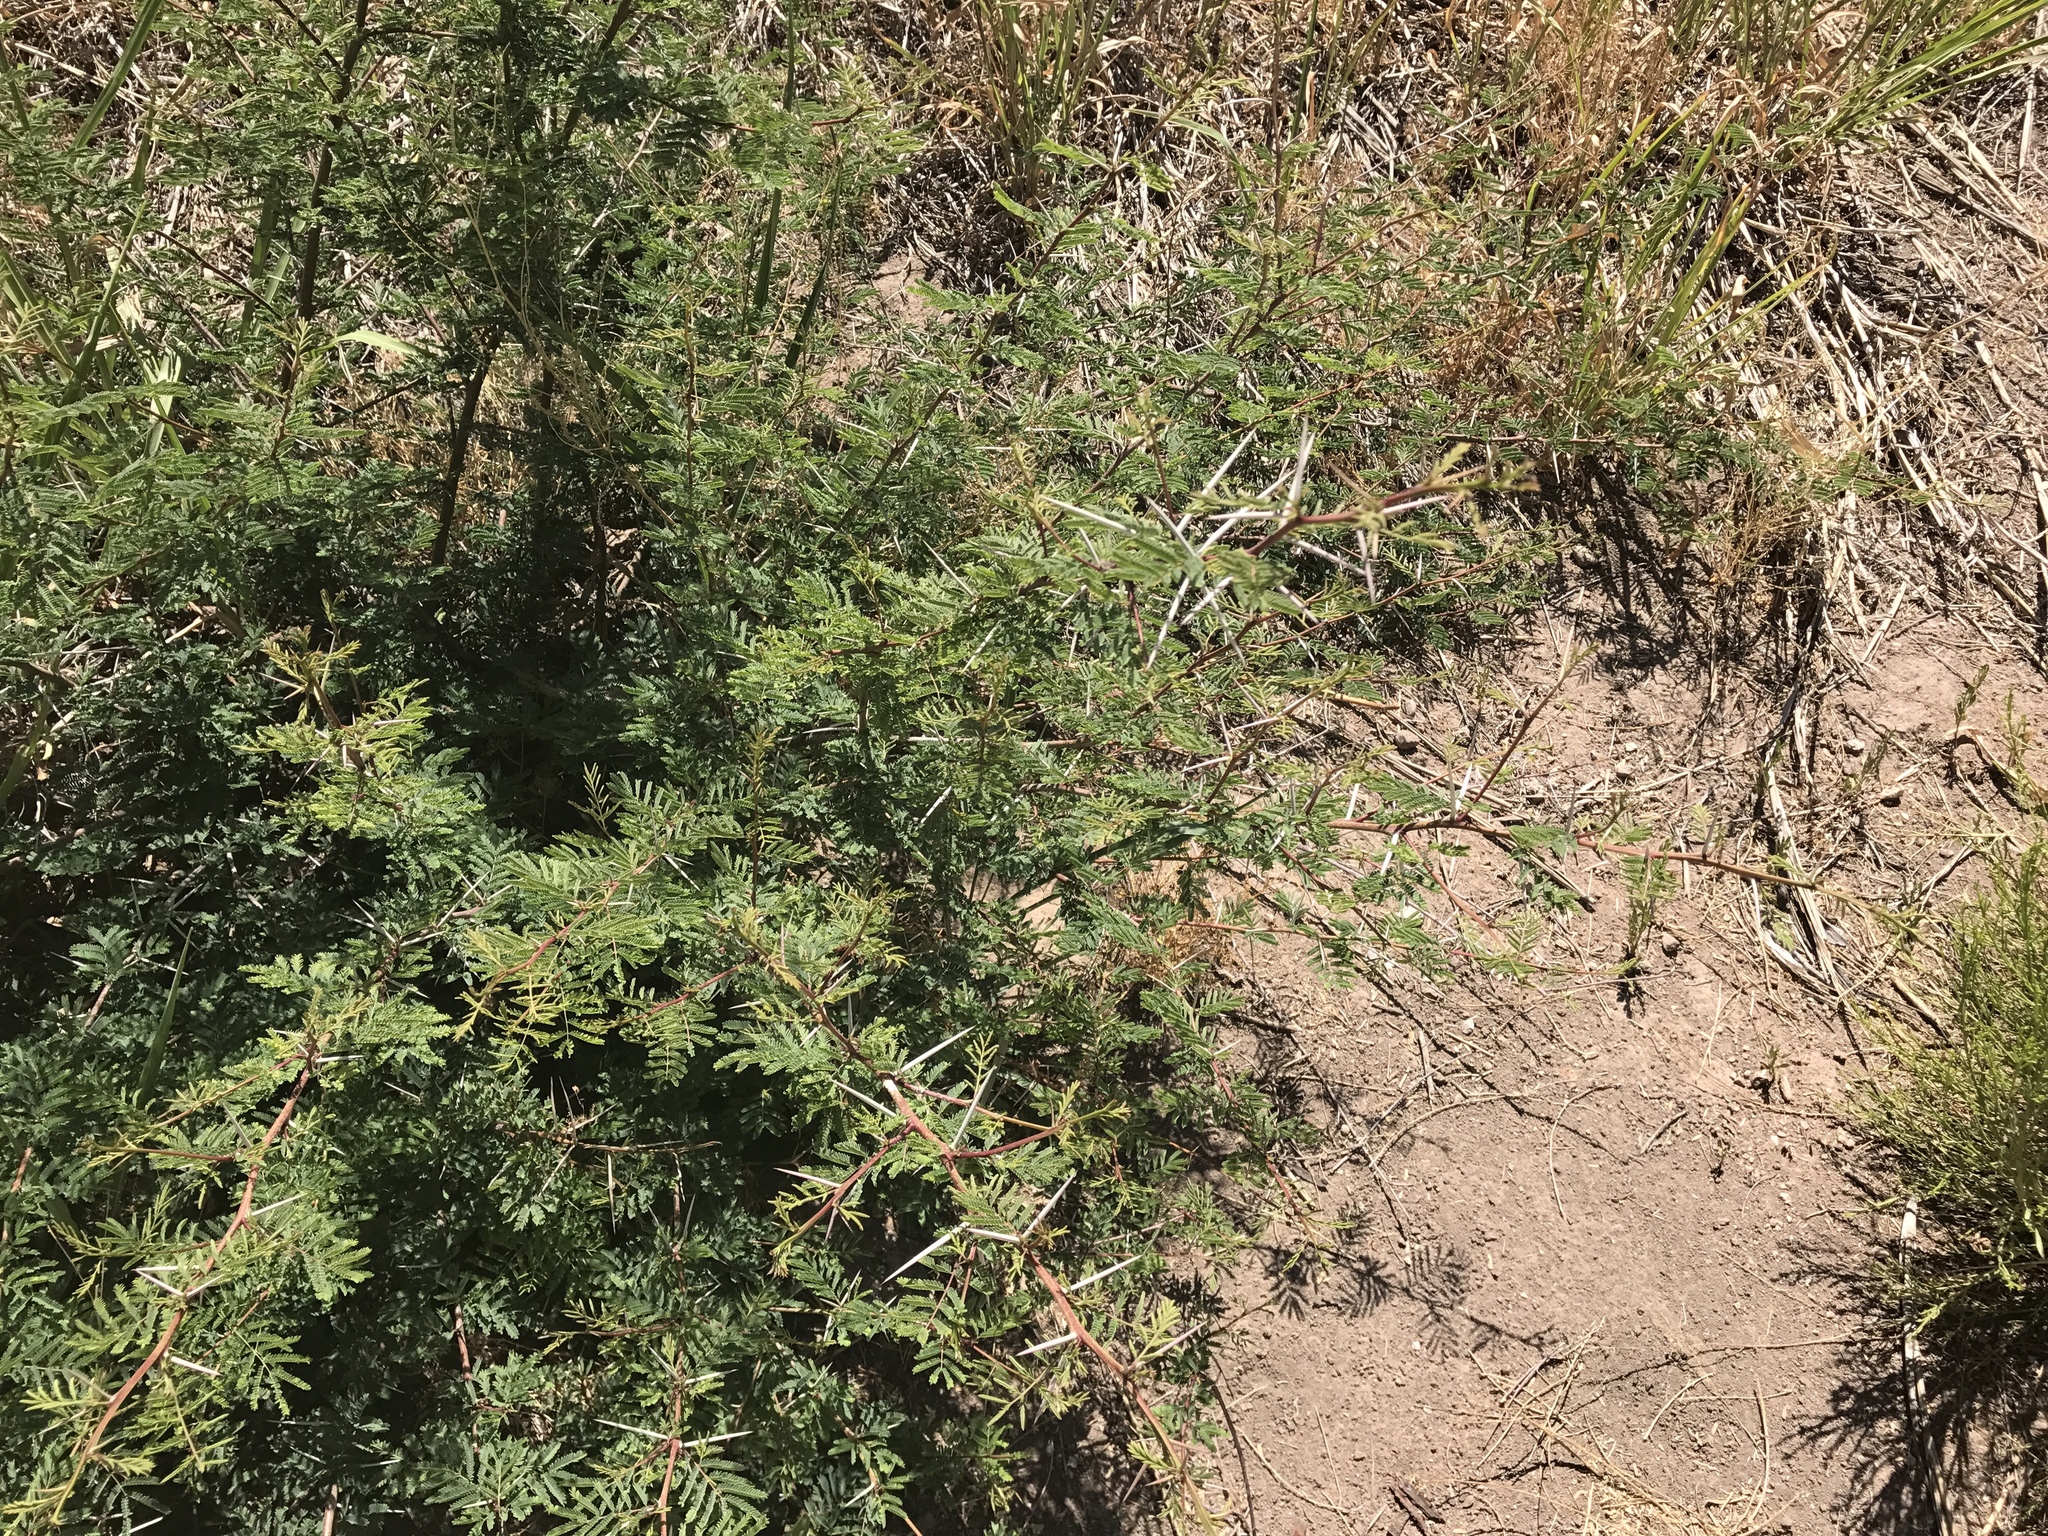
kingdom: Plantae
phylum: Tracheophyta
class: Magnoliopsida
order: Fabales
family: Fabaceae
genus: Vachellia
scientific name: Vachellia constricta
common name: Mescat acacia
